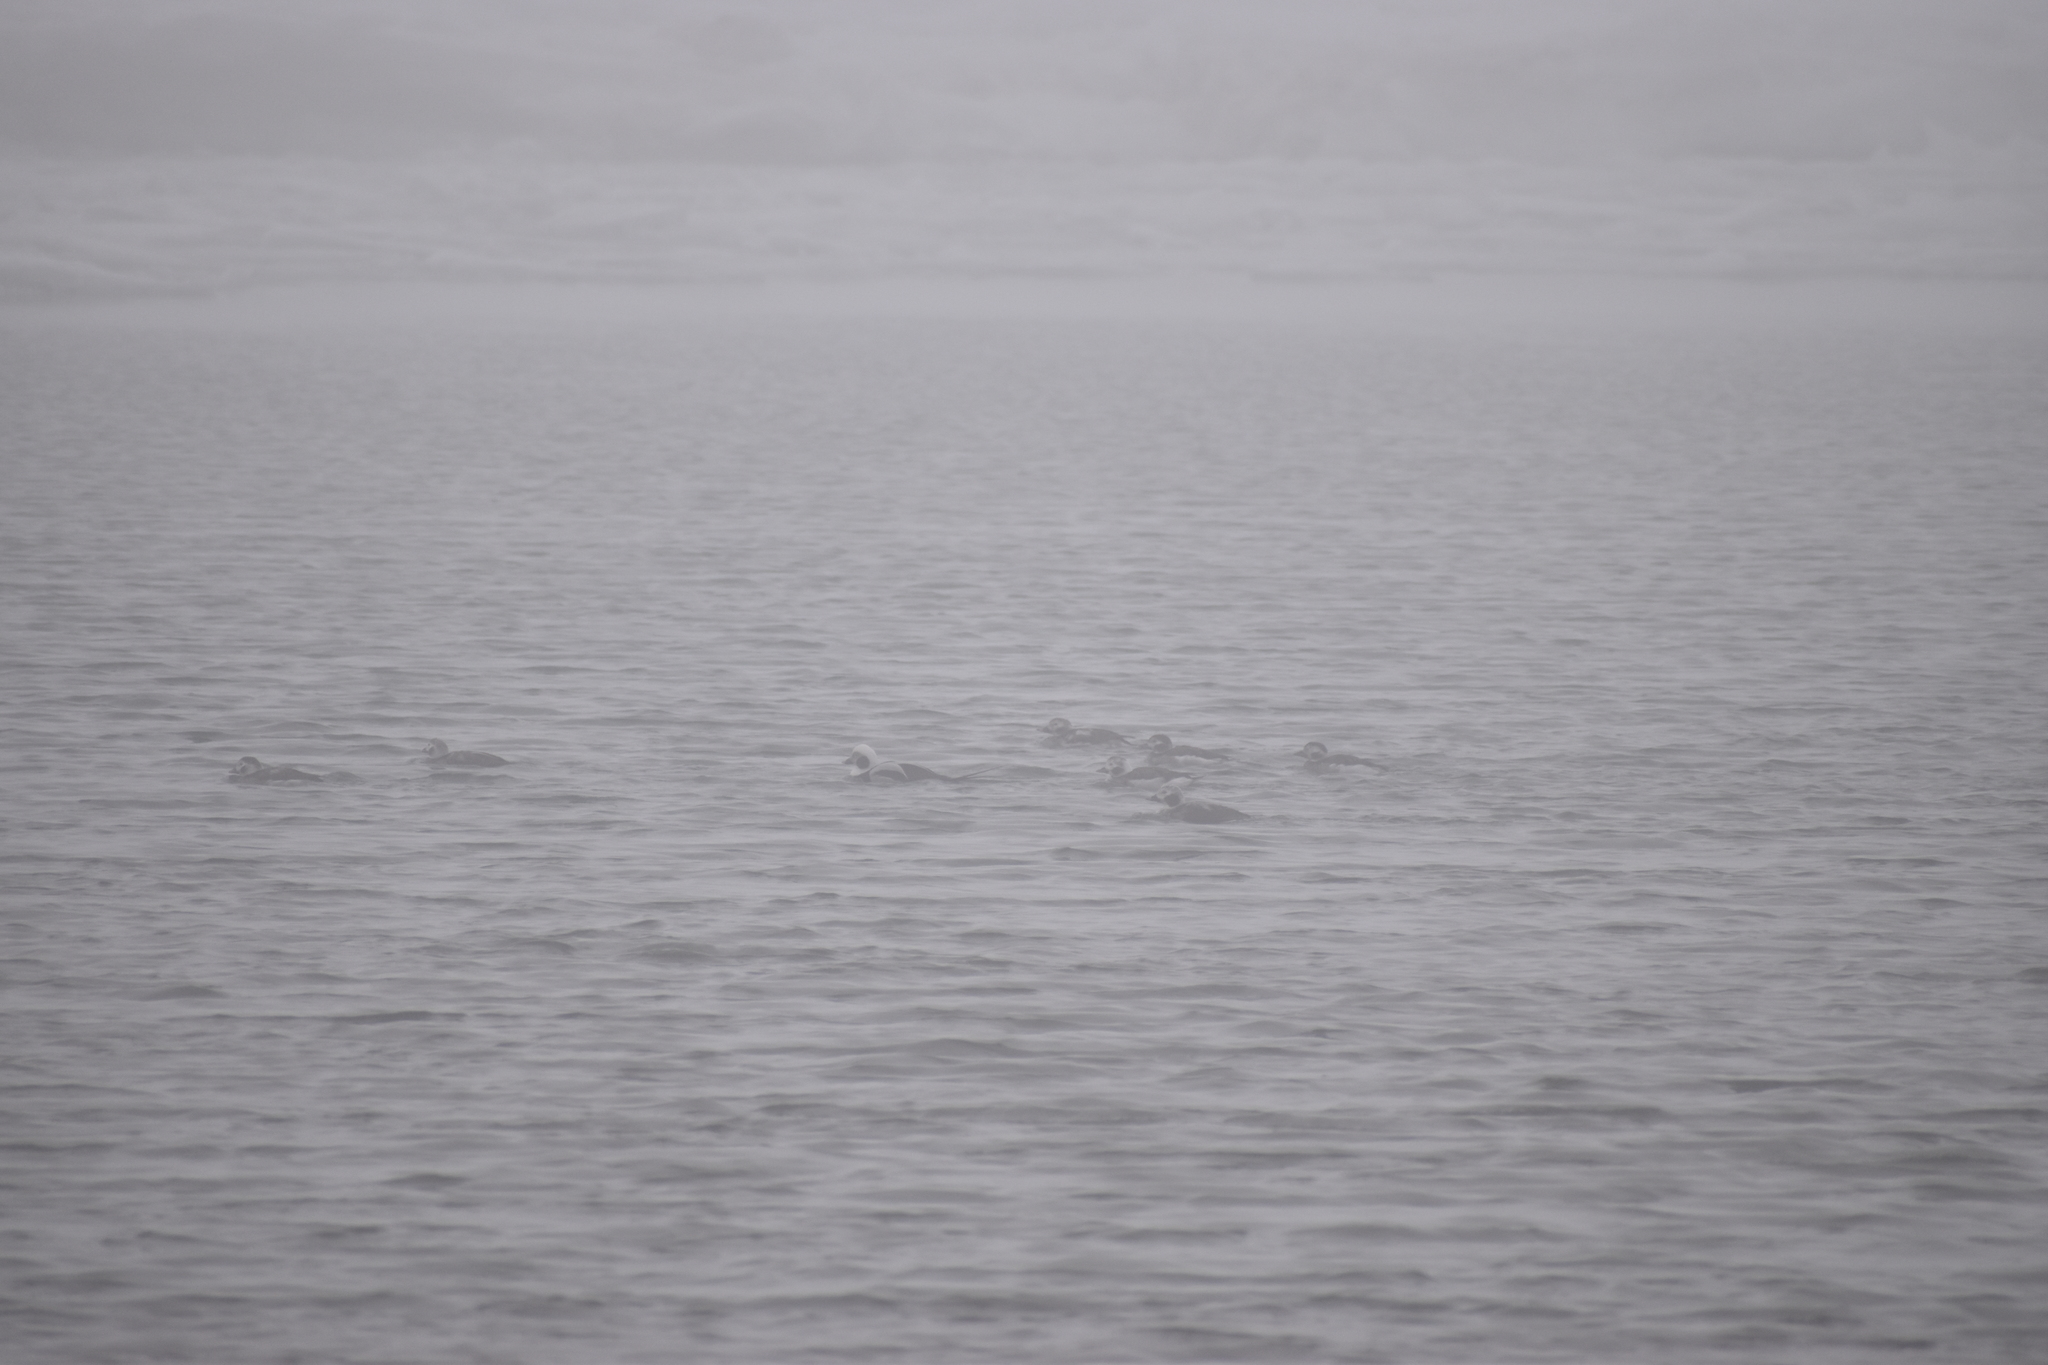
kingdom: Animalia
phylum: Chordata
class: Aves
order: Anseriformes
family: Anatidae
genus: Clangula
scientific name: Clangula hyemalis
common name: Long-tailed duck
